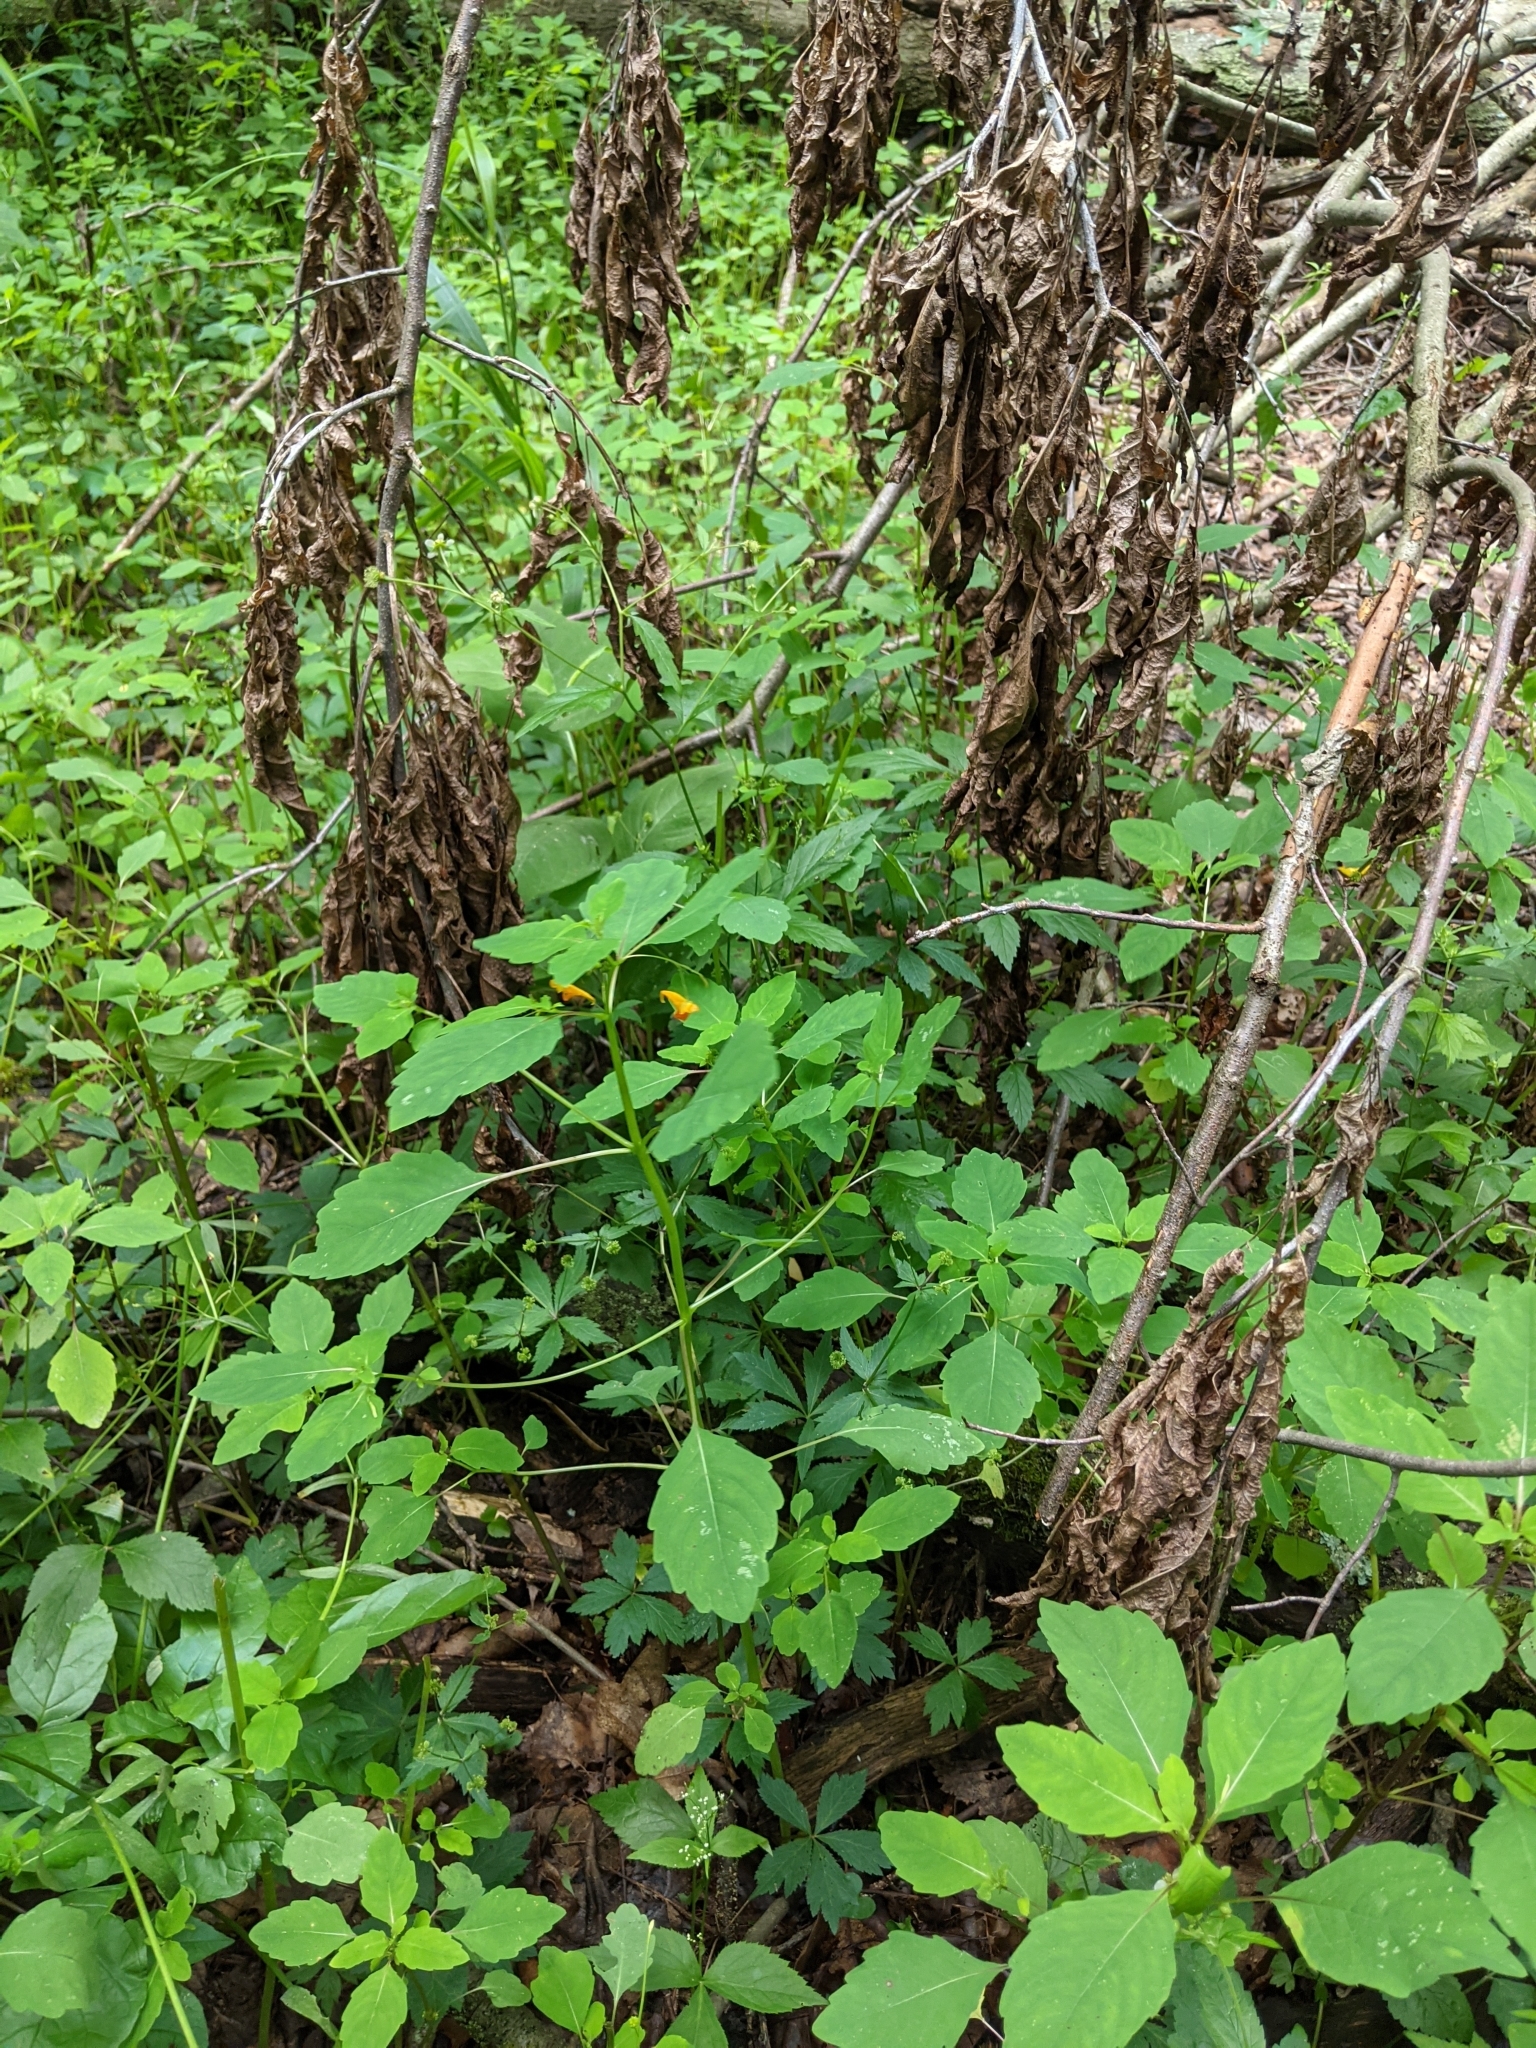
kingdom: Plantae
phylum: Tracheophyta
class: Magnoliopsida
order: Ericales
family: Balsaminaceae
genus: Impatiens
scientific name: Impatiens capensis
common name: Orange balsam
